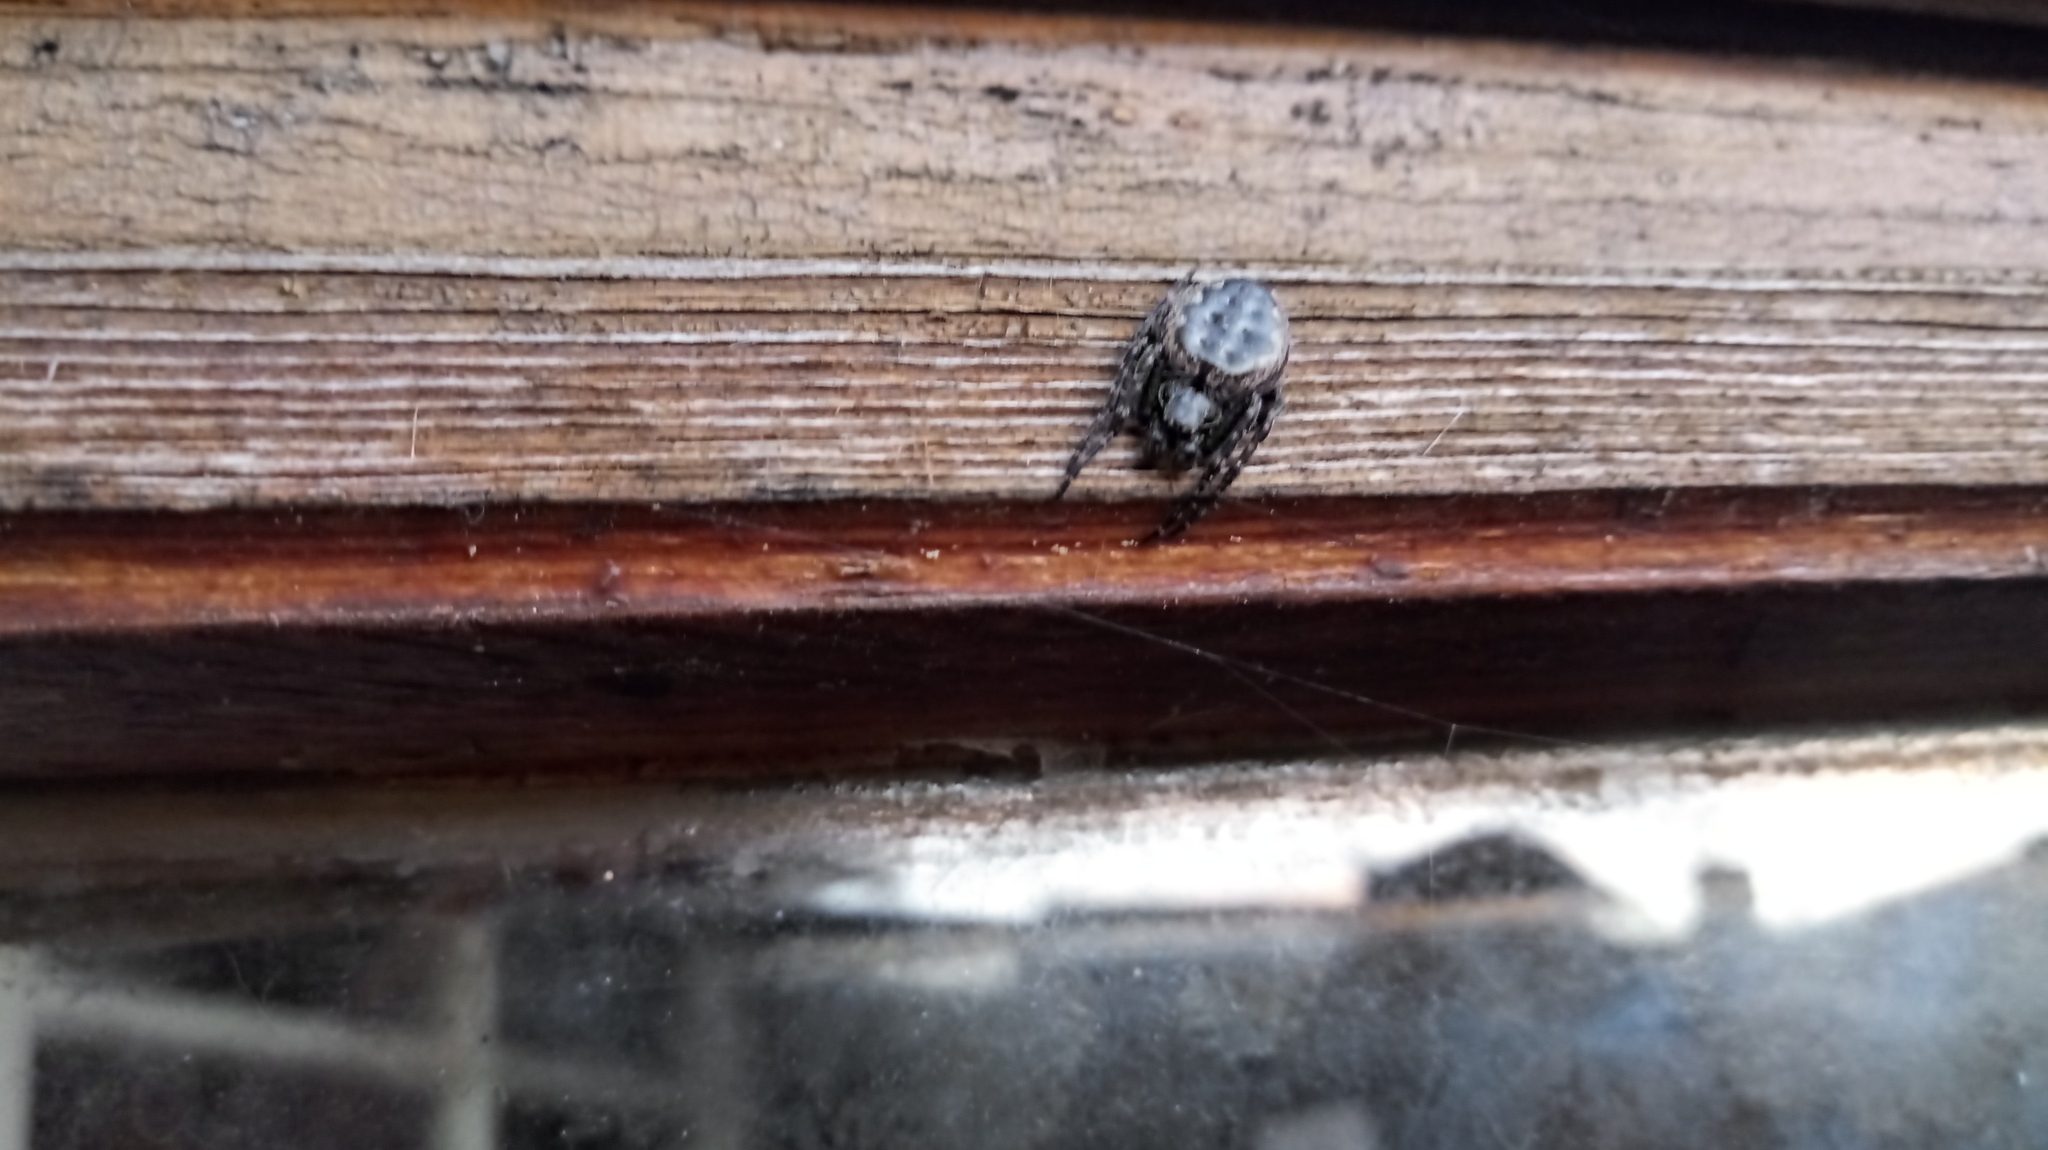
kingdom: Animalia
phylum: Arthropoda
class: Arachnida
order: Araneae
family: Araneidae
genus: Nuctenea
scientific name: Nuctenea umbratica
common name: Toad spider
